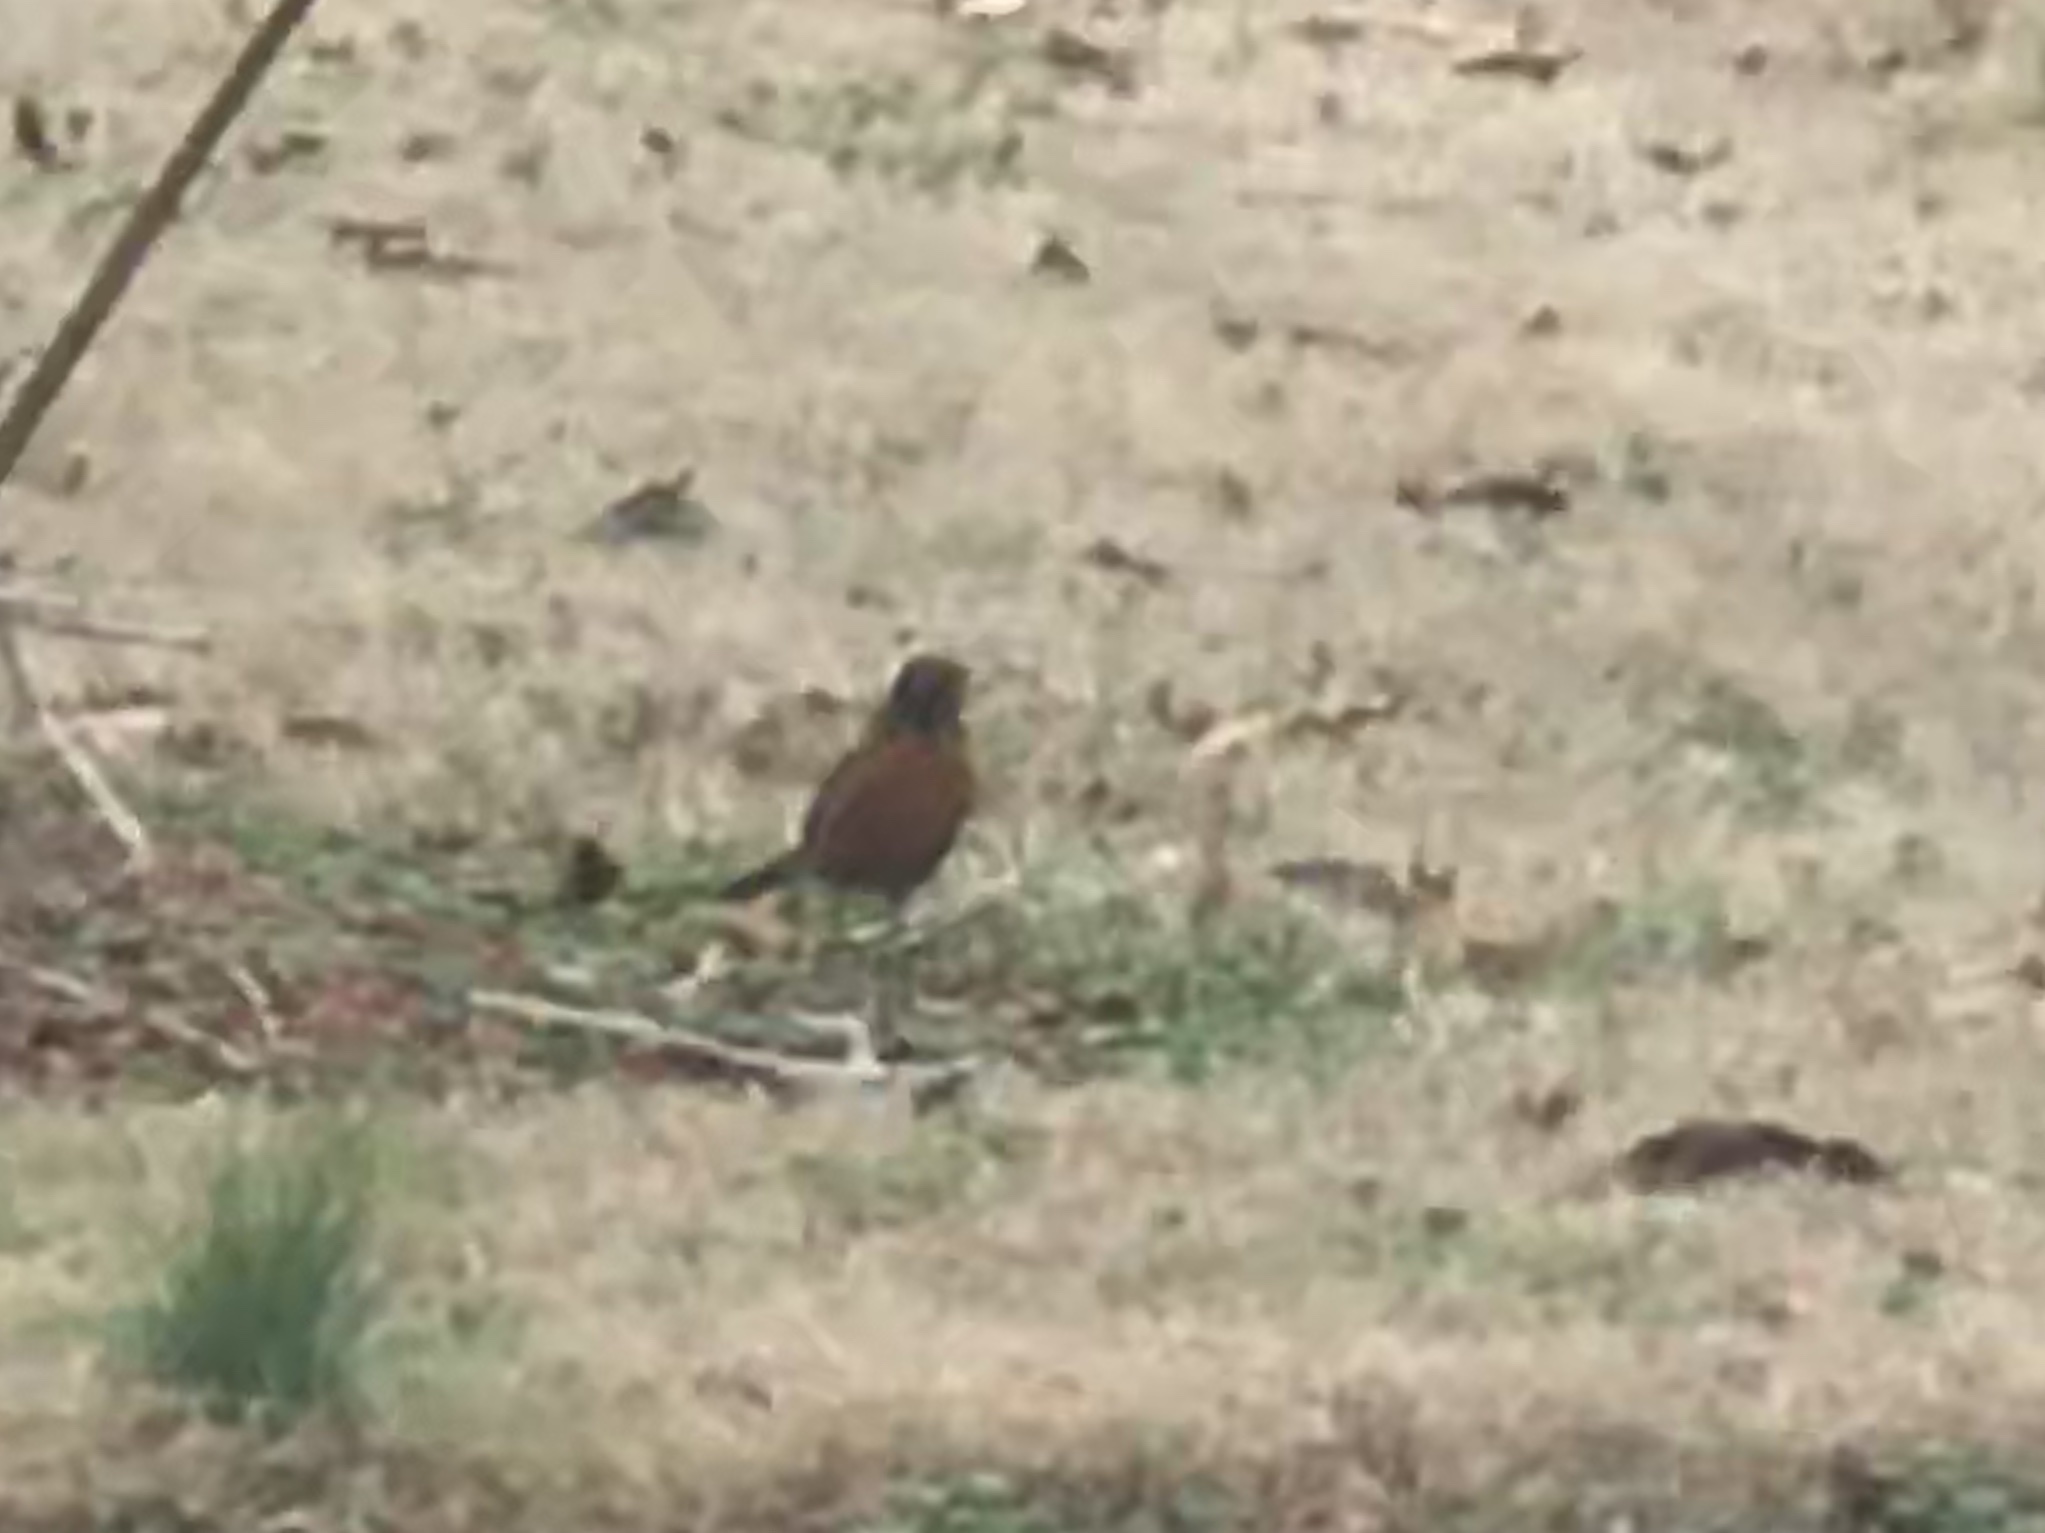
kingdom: Animalia
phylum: Chordata
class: Aves
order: Passeriformes
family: Turdidae
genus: Turdus
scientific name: Turdus migratorius
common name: American robin
